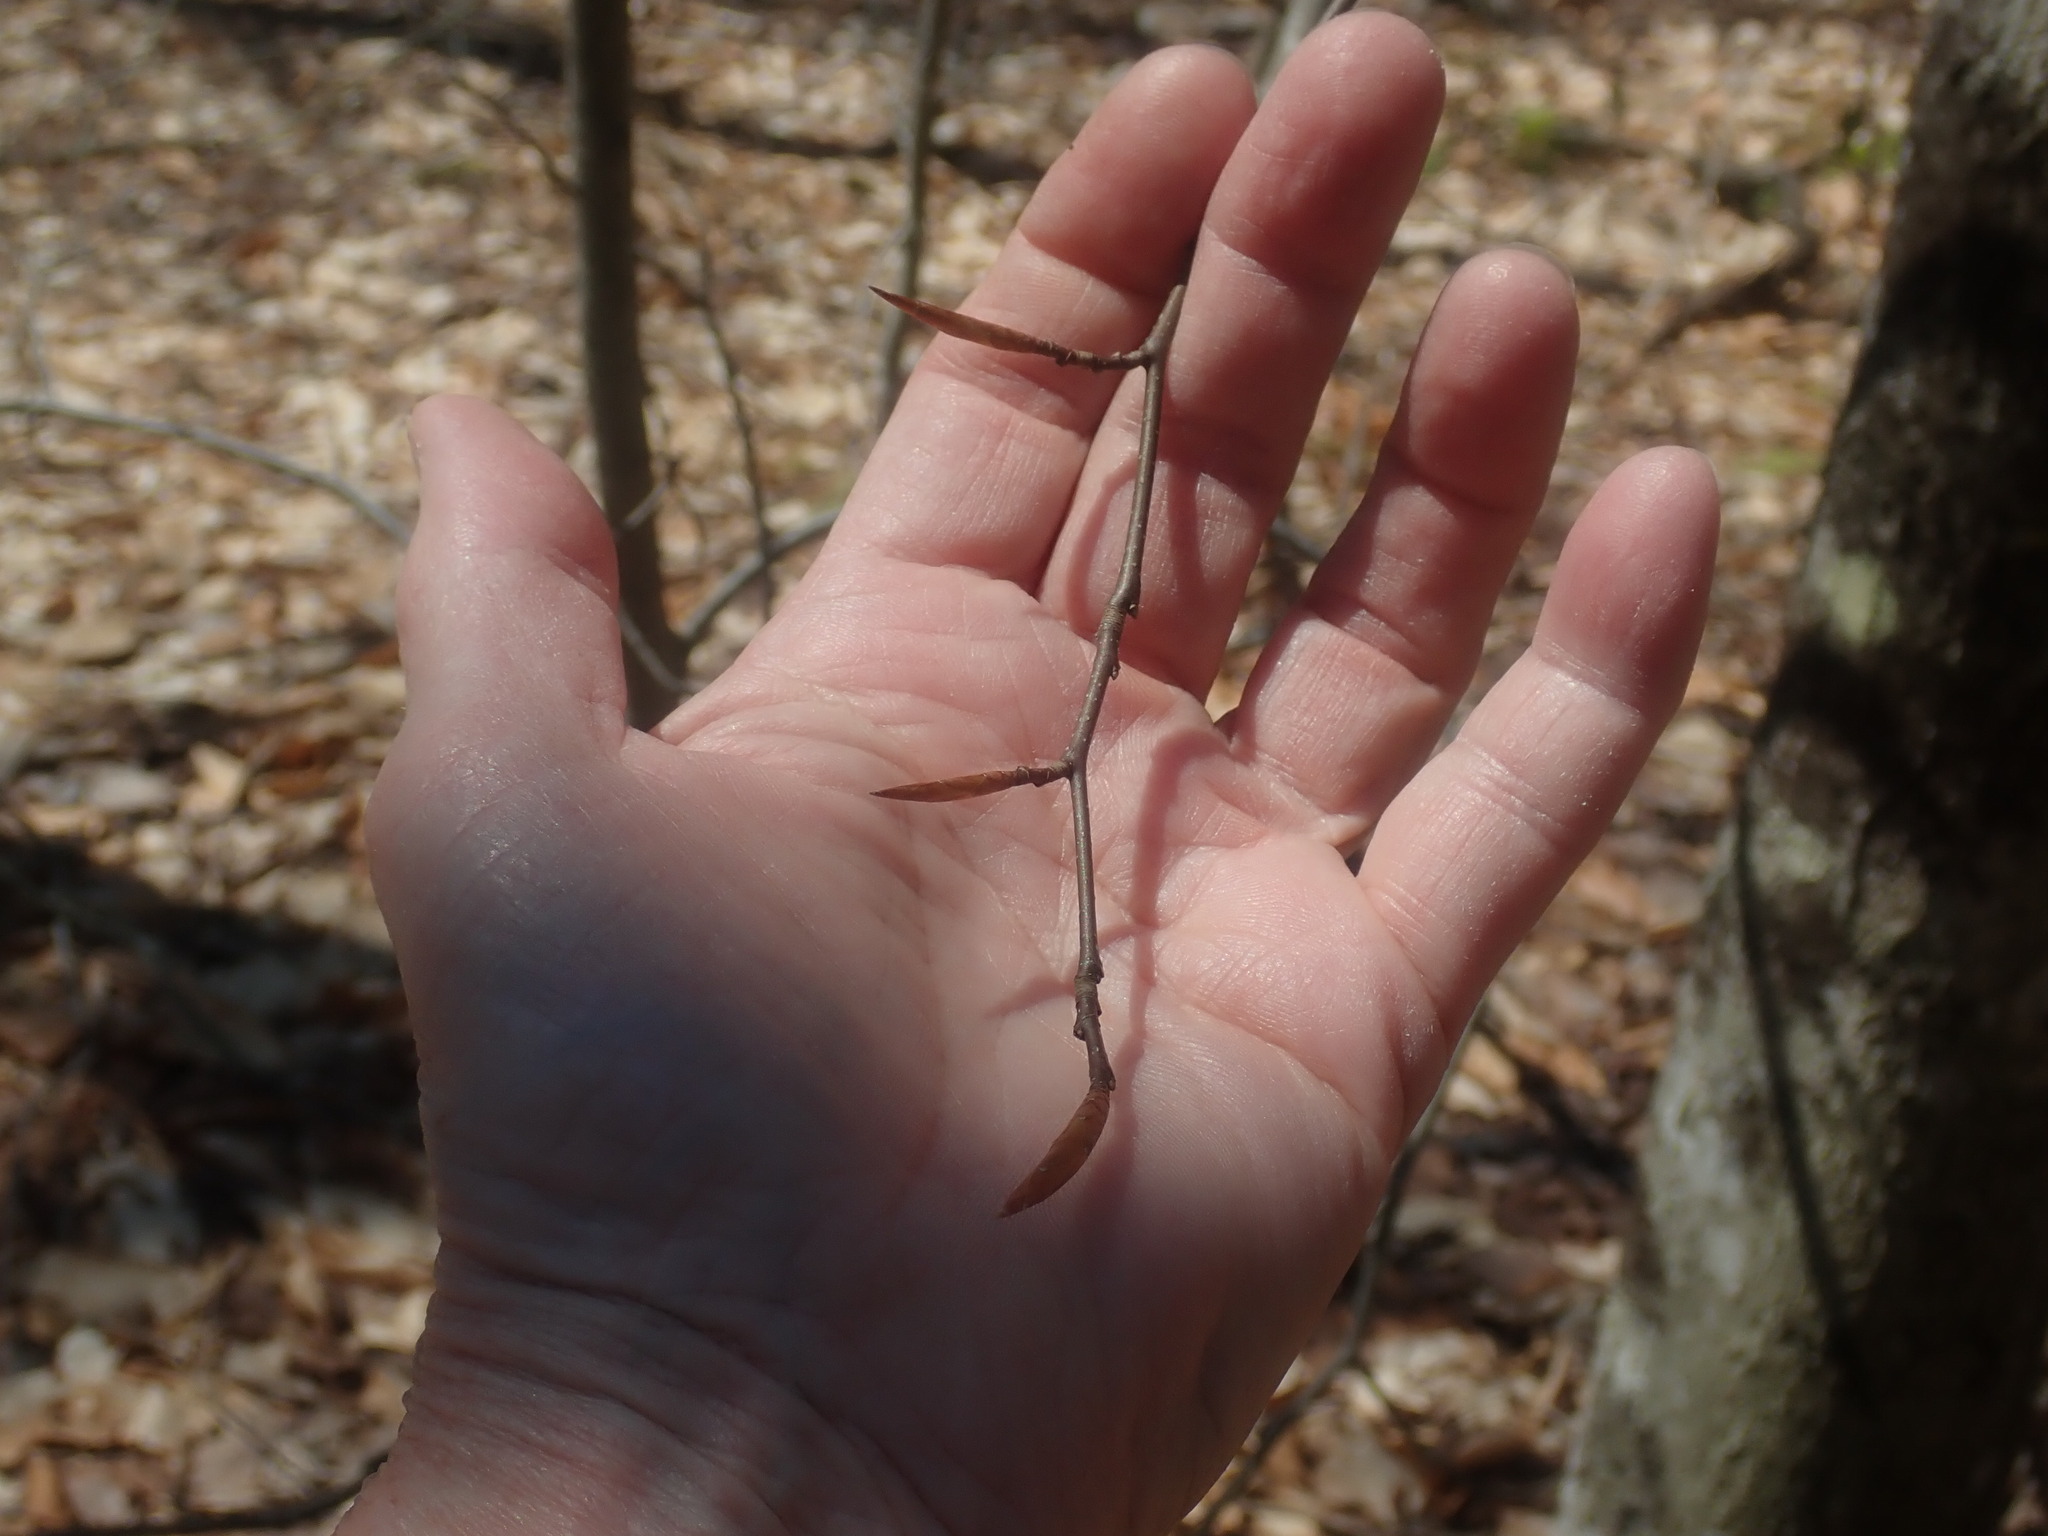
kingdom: Plantae
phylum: Tracheophyta
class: Magnoliopsida
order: Fagales
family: Fagaceae
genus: Fagus
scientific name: Fagus grandifolia
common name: American beech
